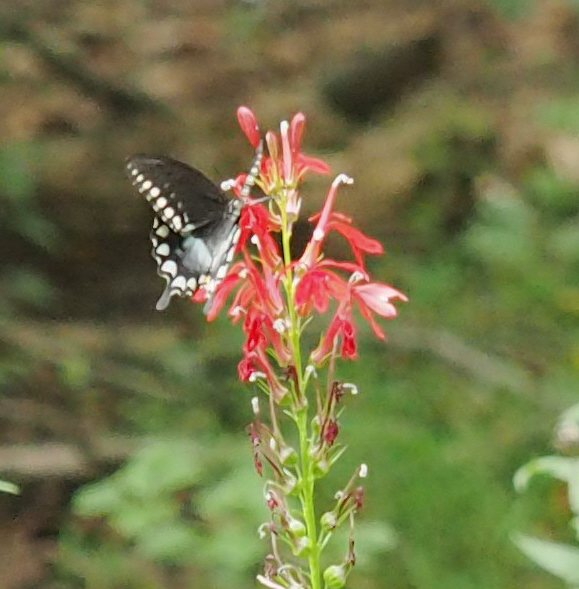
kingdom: Animalia
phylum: Arthropoda
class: Insecta
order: Lepidoptera
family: Papilionidae
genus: Papilio
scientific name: Papilio troilus
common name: Spicebush swallowtail
